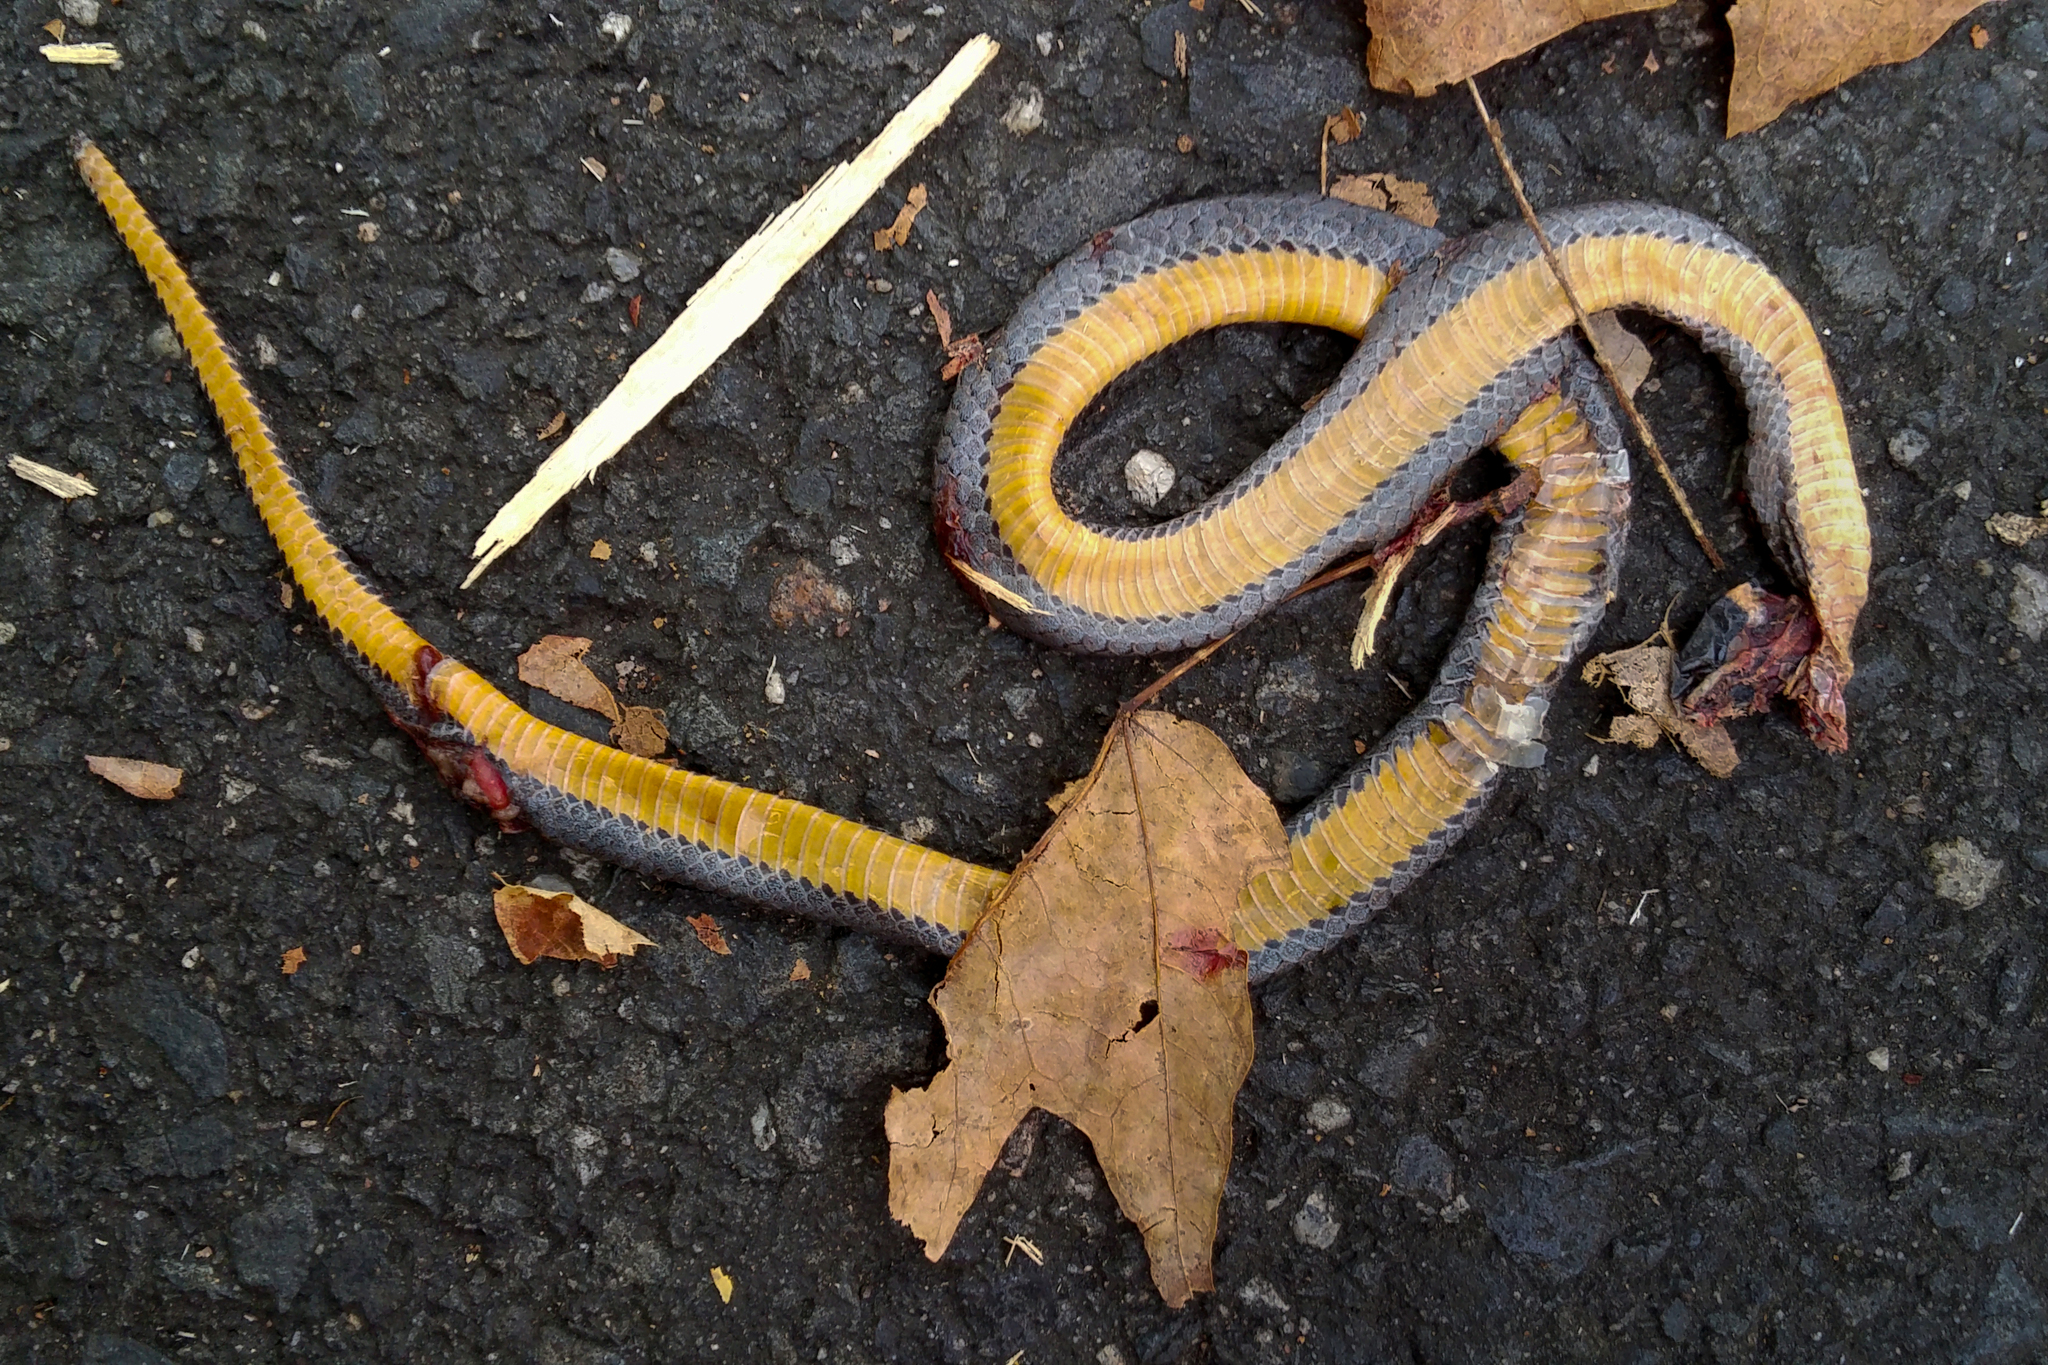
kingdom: Animalia
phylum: Chordata
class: Squamata
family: Colubridae
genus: Diadophis
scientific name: Diadophis punctatus
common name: Ringneck snake
